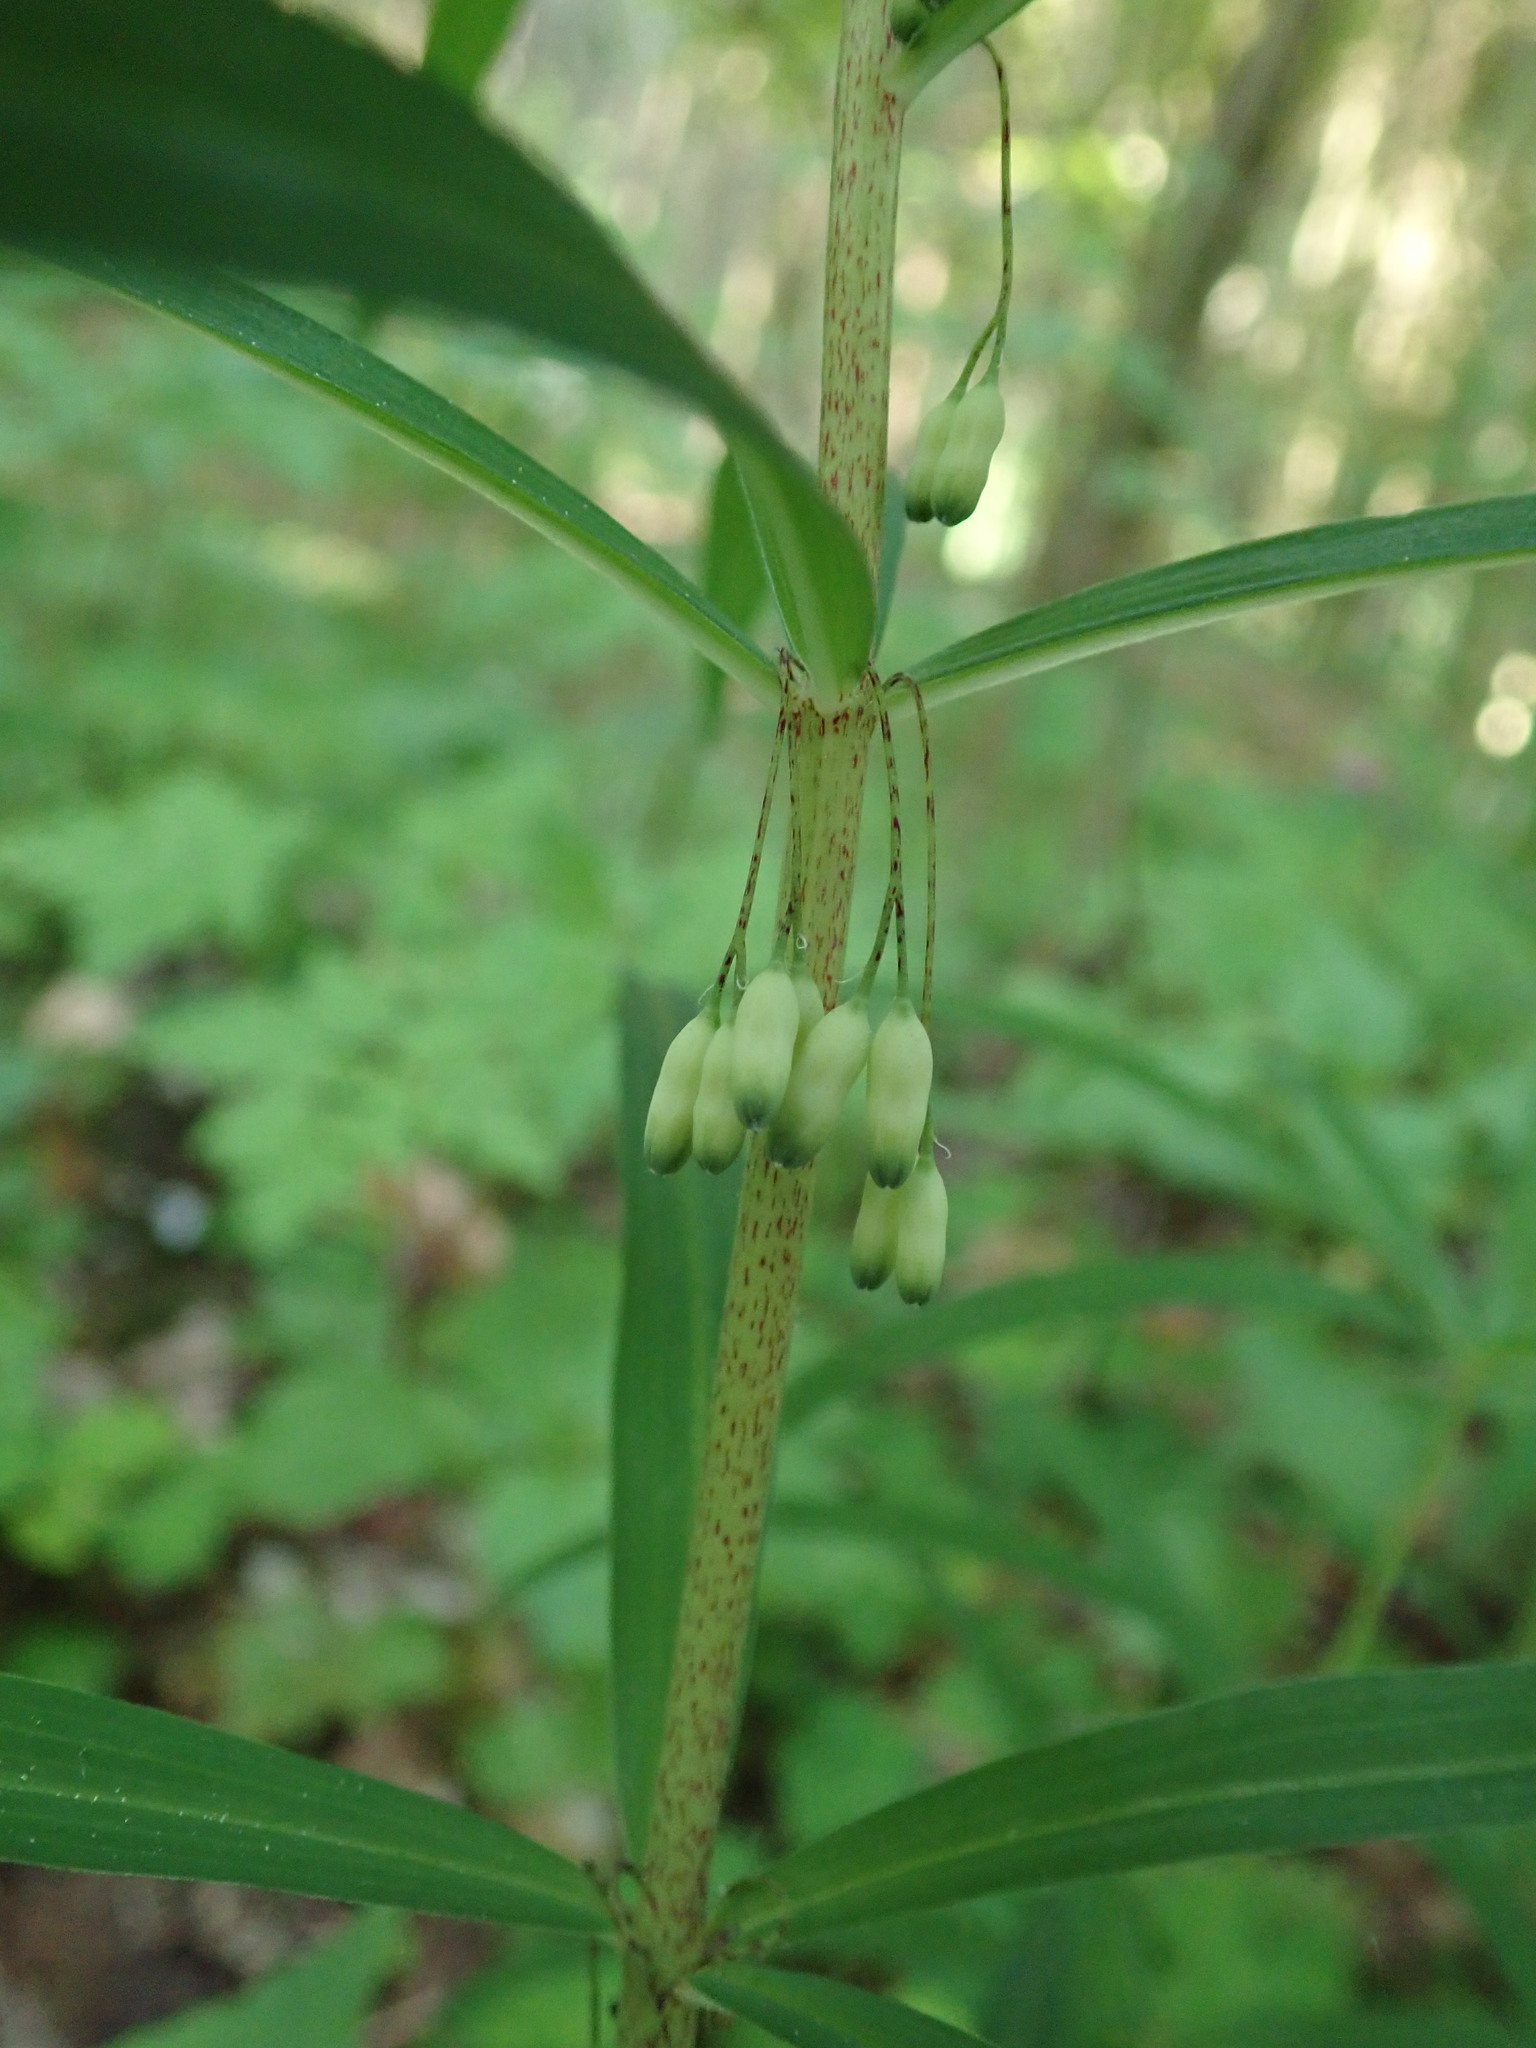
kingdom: Plantae
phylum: Tracheophyta
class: Liliopsida
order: Asparagales
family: Asparagaceae
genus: Polygonatum
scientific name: Polygonatum verticillatum
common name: Whorled solomon's-seal
